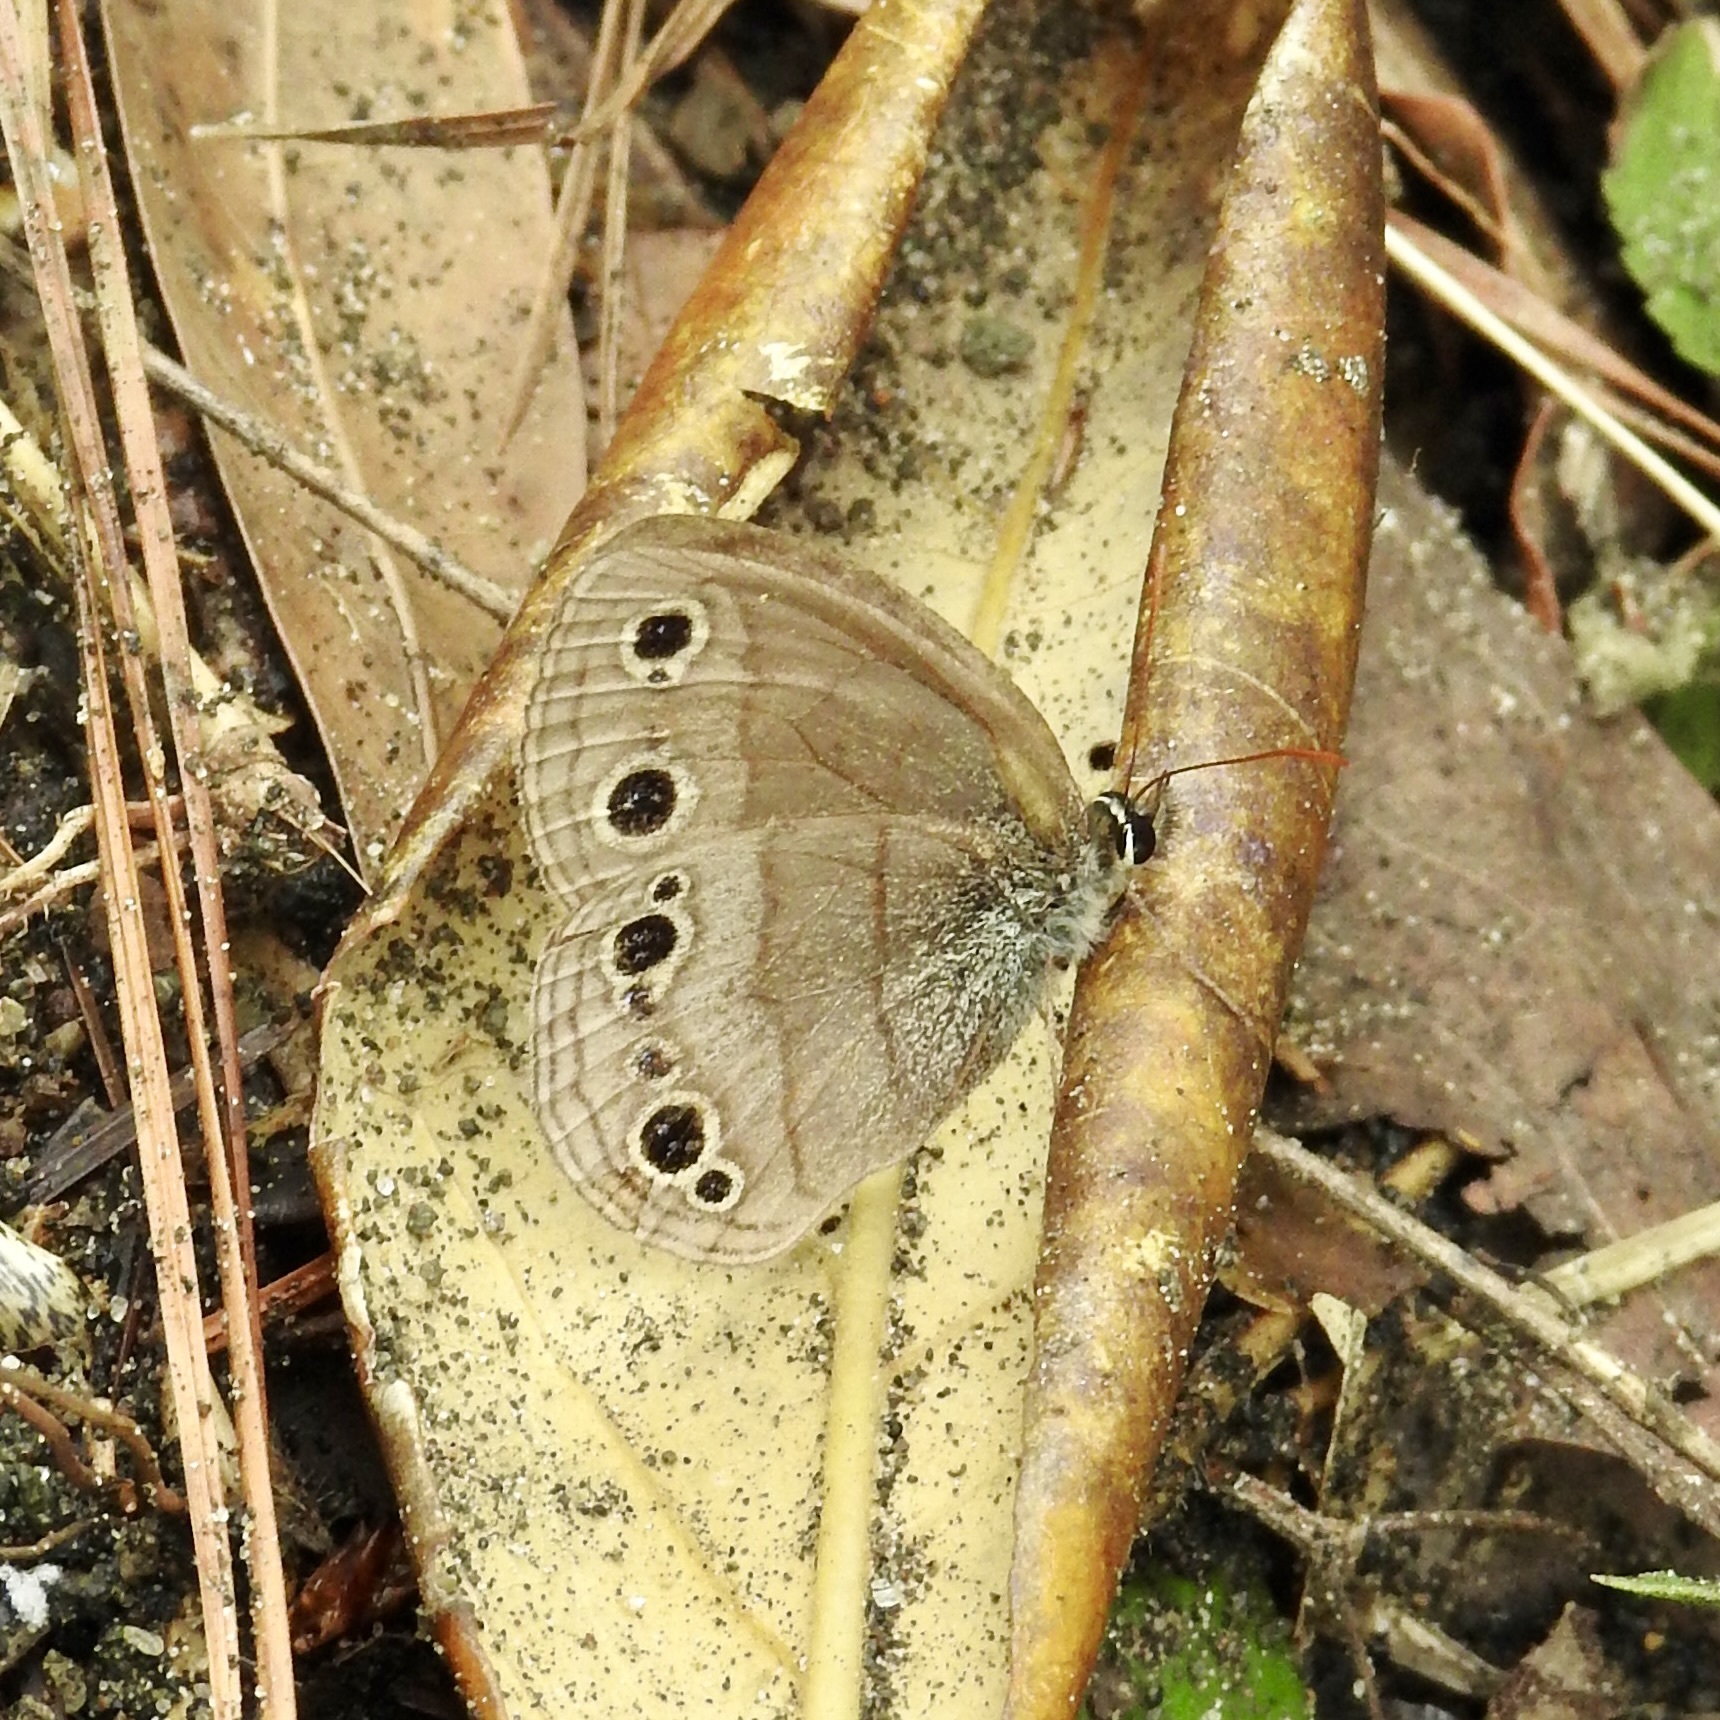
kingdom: Animalia
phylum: Arthropoda
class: Insecta
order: Lepidoptera
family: Nymphalidae
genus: Euptychia
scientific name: Euptychia cymela
